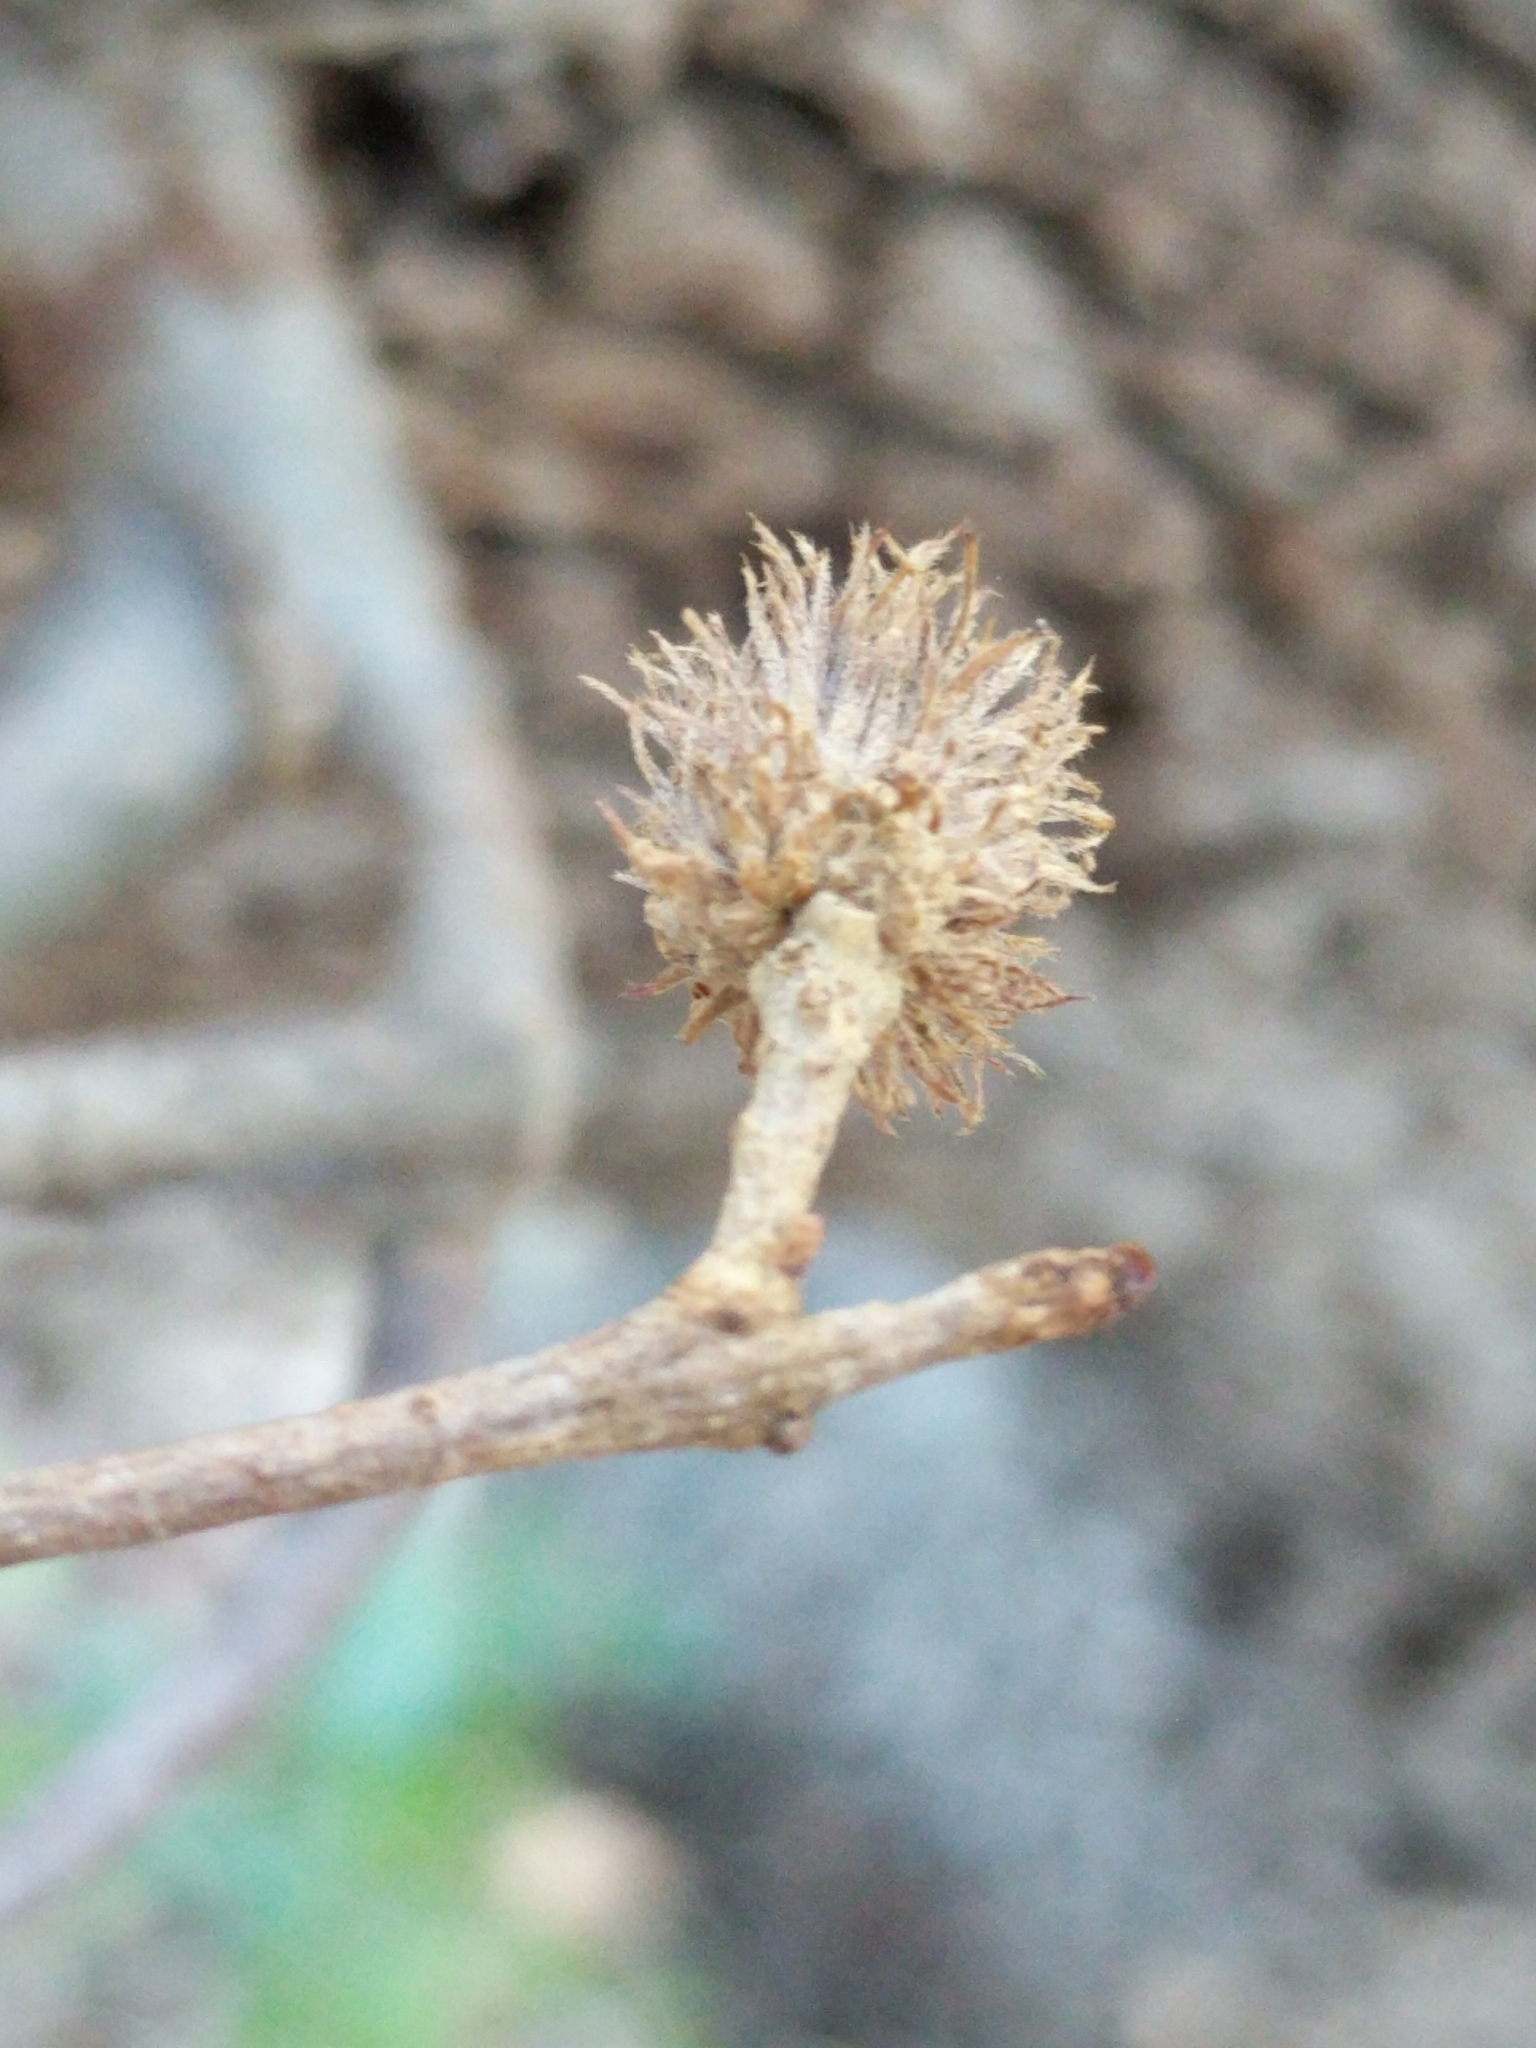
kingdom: Animalia
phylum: Arthropoda
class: Insecta
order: Hymenoptera
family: Cynipidae
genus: Andricus
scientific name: Andricus quercusfoliatus
